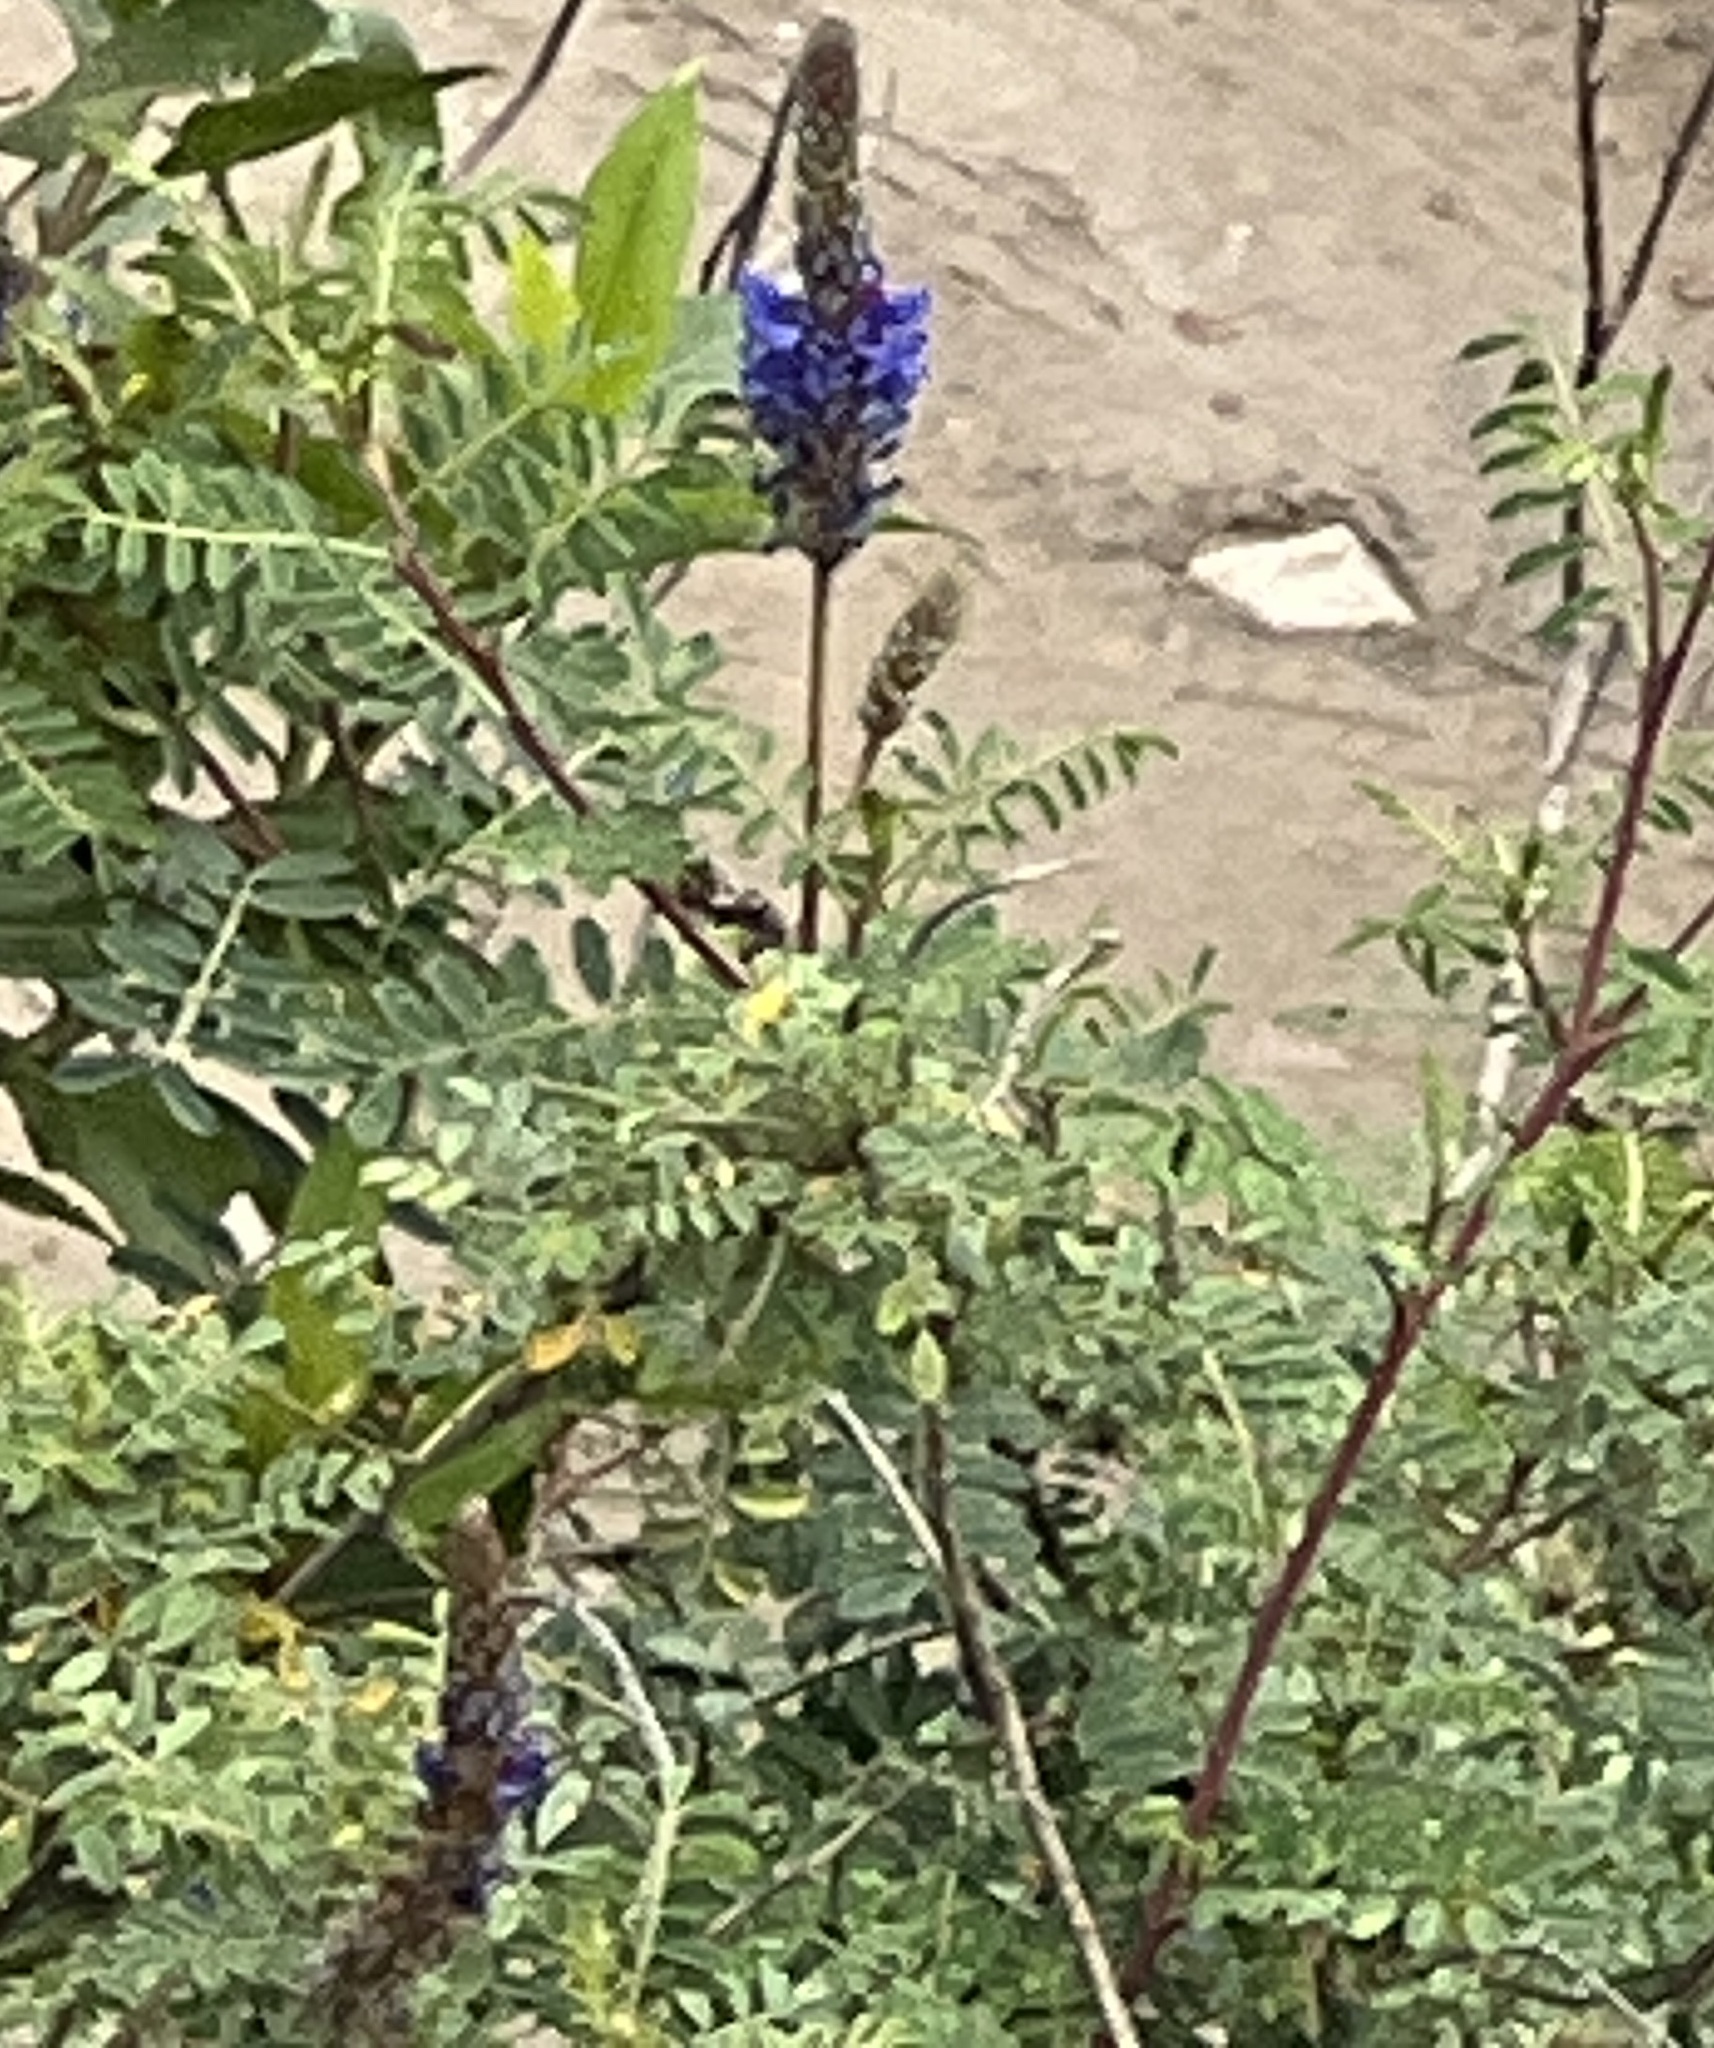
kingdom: Plantae
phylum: Tracheophyta
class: Magnoliopsida
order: Fabales
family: Fabaceae
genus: Dalea
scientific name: Dalea coerulea
